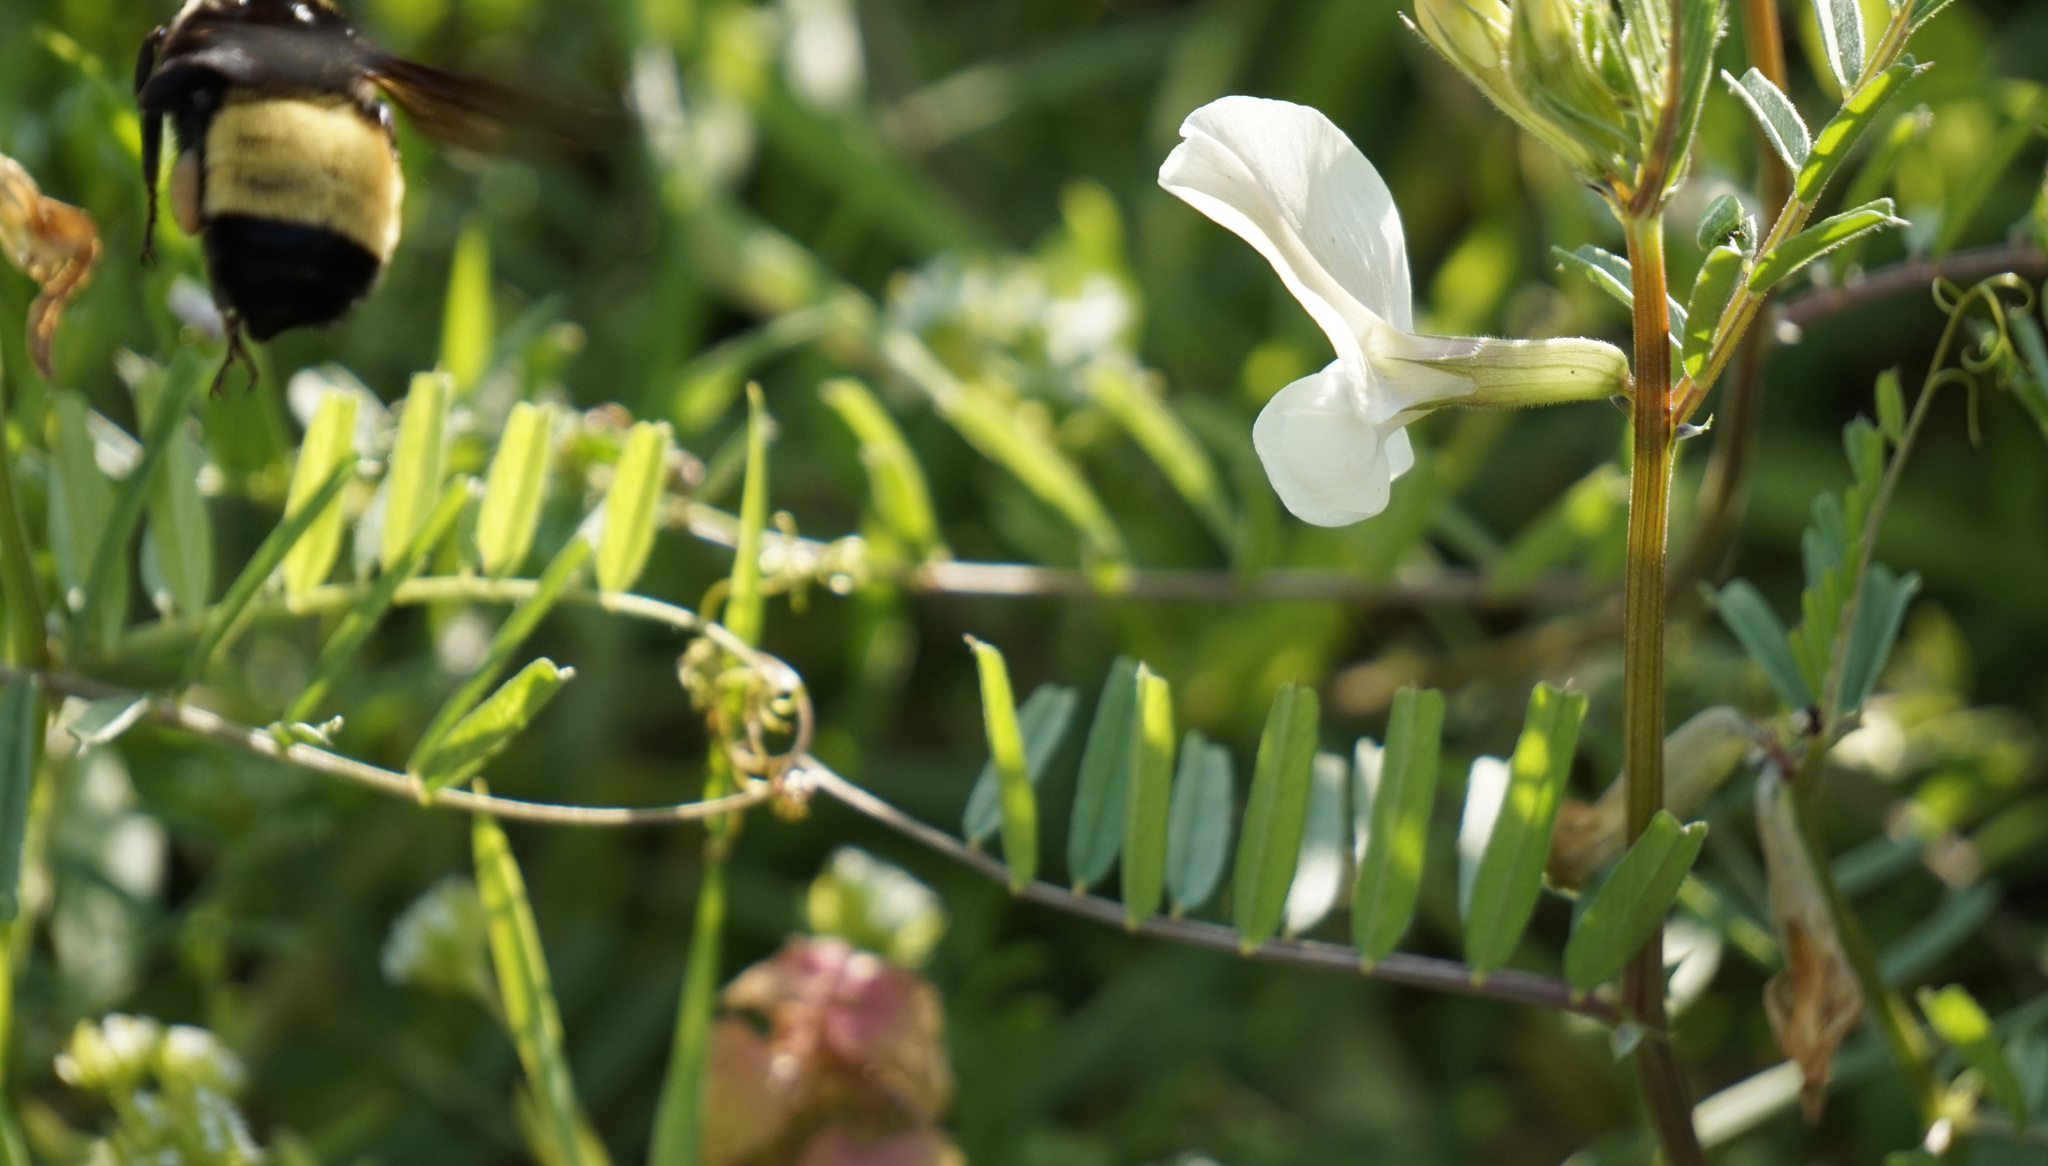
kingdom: Animalia
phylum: Arthropoda
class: Insecta
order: Hymenoptera
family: Apidae
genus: Bombus
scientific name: Bombus pensylvanicus
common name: Bumble bee
